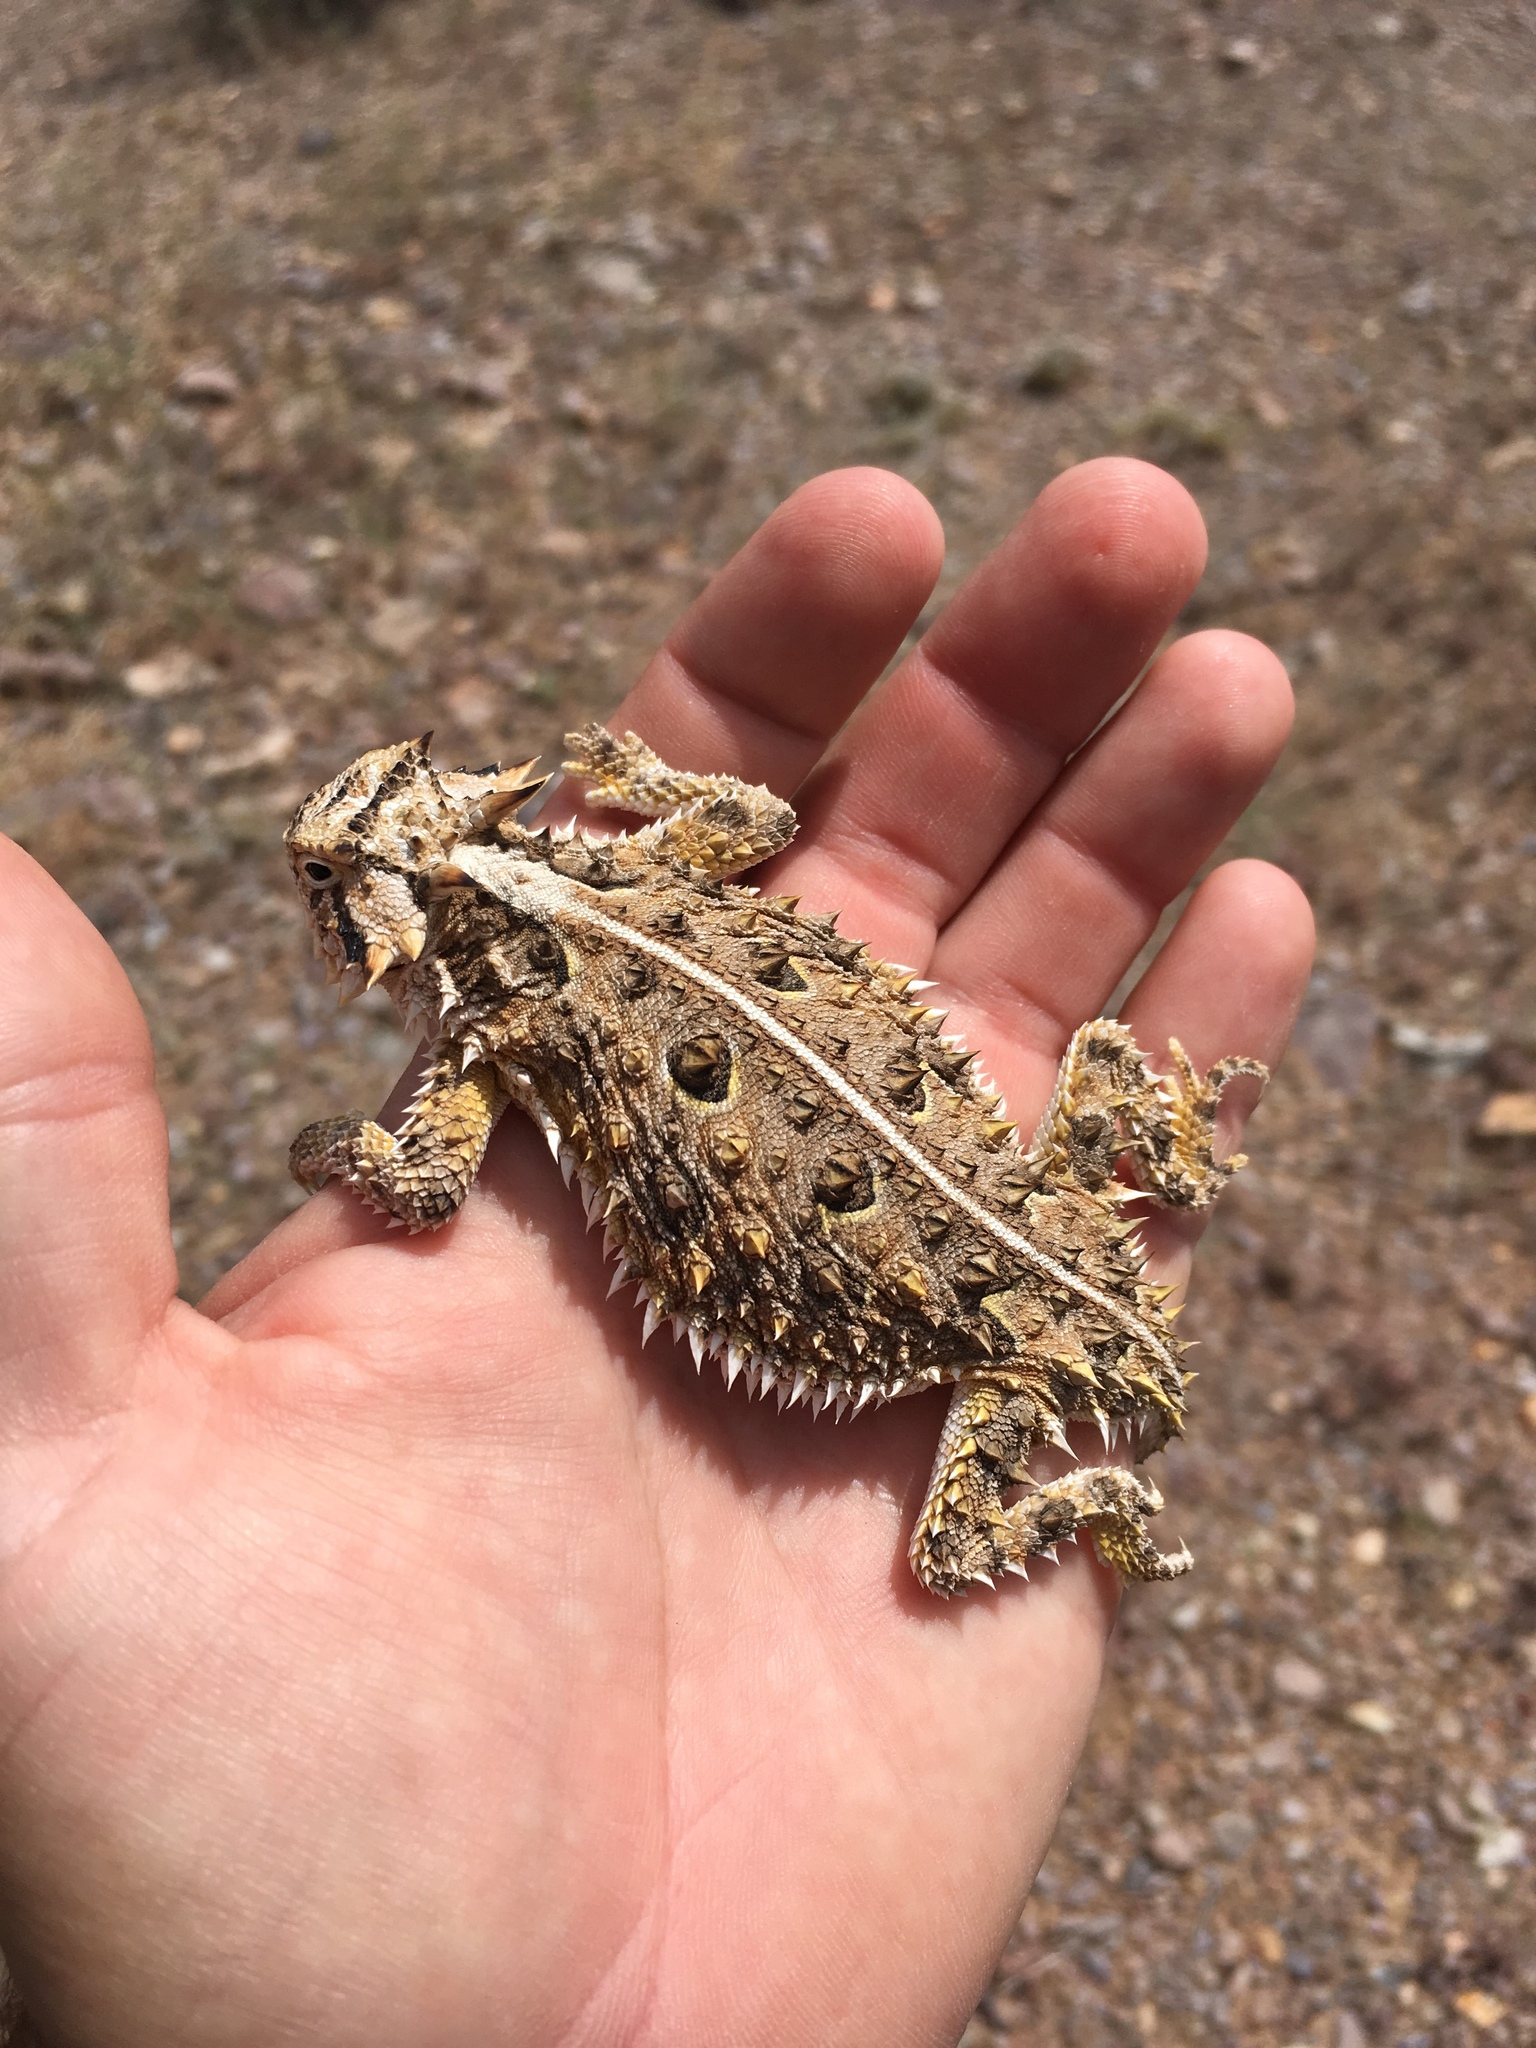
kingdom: Animalia
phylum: Chordata
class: Squamata
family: Phrynosomatidae
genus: Phrynosoma
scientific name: Phrynosoma cornutum
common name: Texas horned lizard
